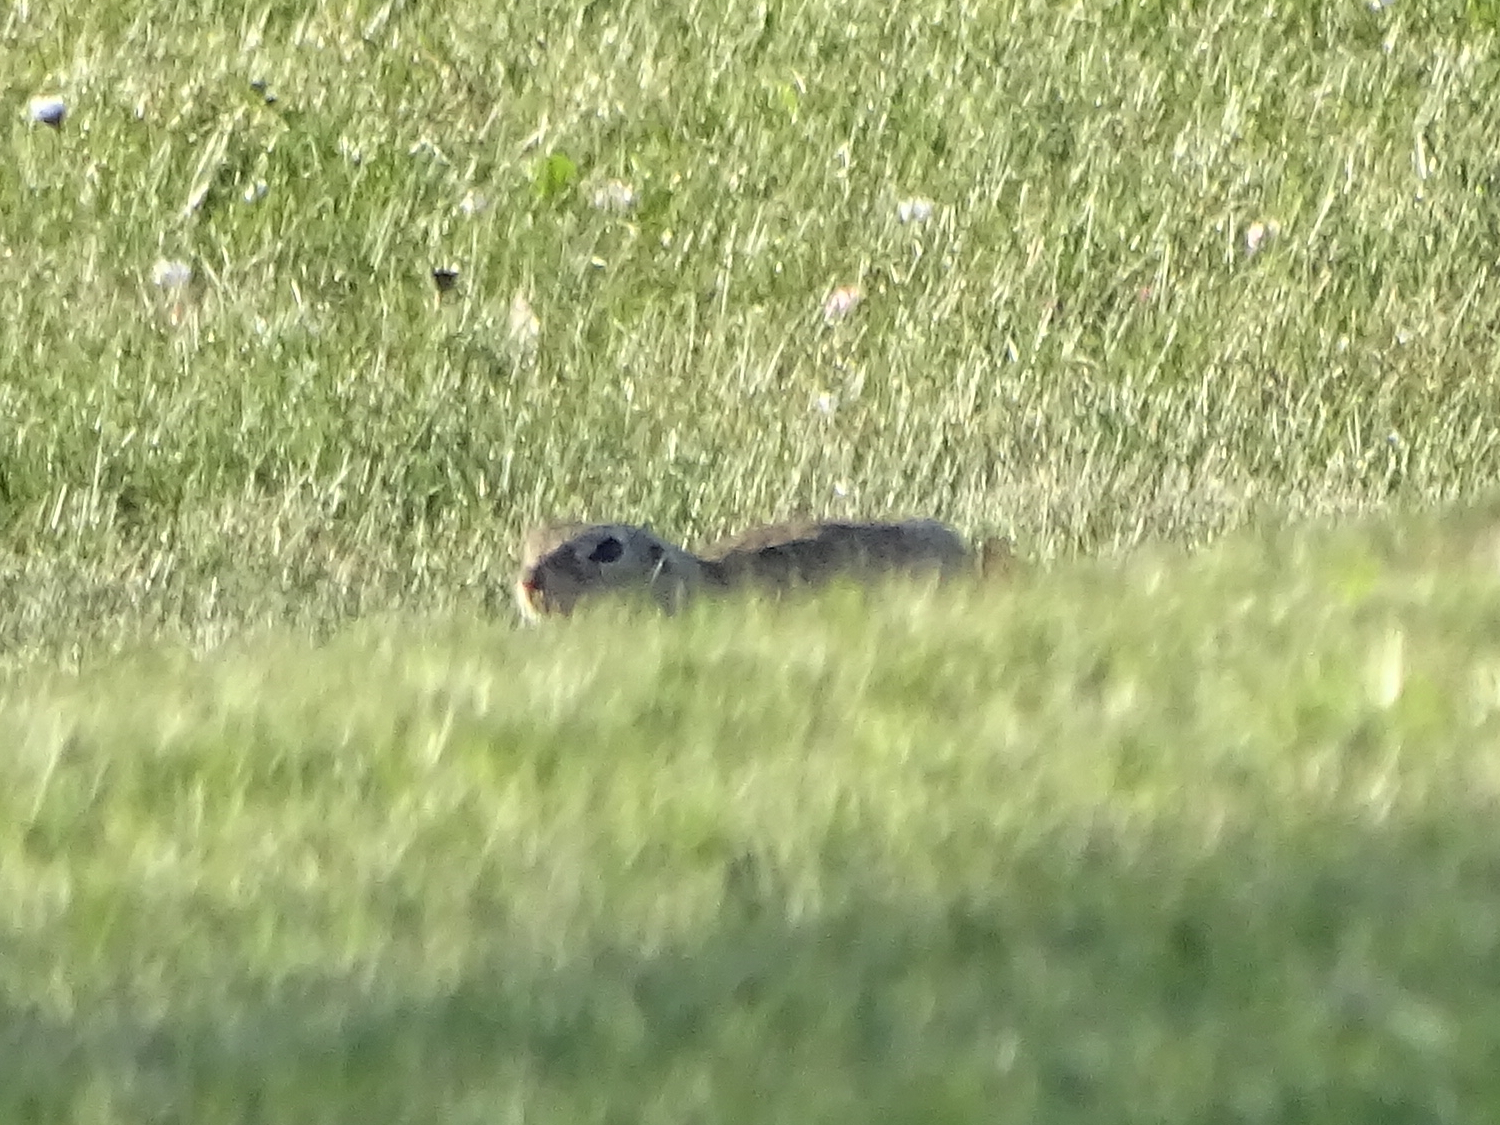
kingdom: Animalia
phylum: Chordata
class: Mammalia
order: Rodentia
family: Sciuridae
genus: Spermophilus
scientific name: Spermophilus citellus
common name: European ground squirrel
